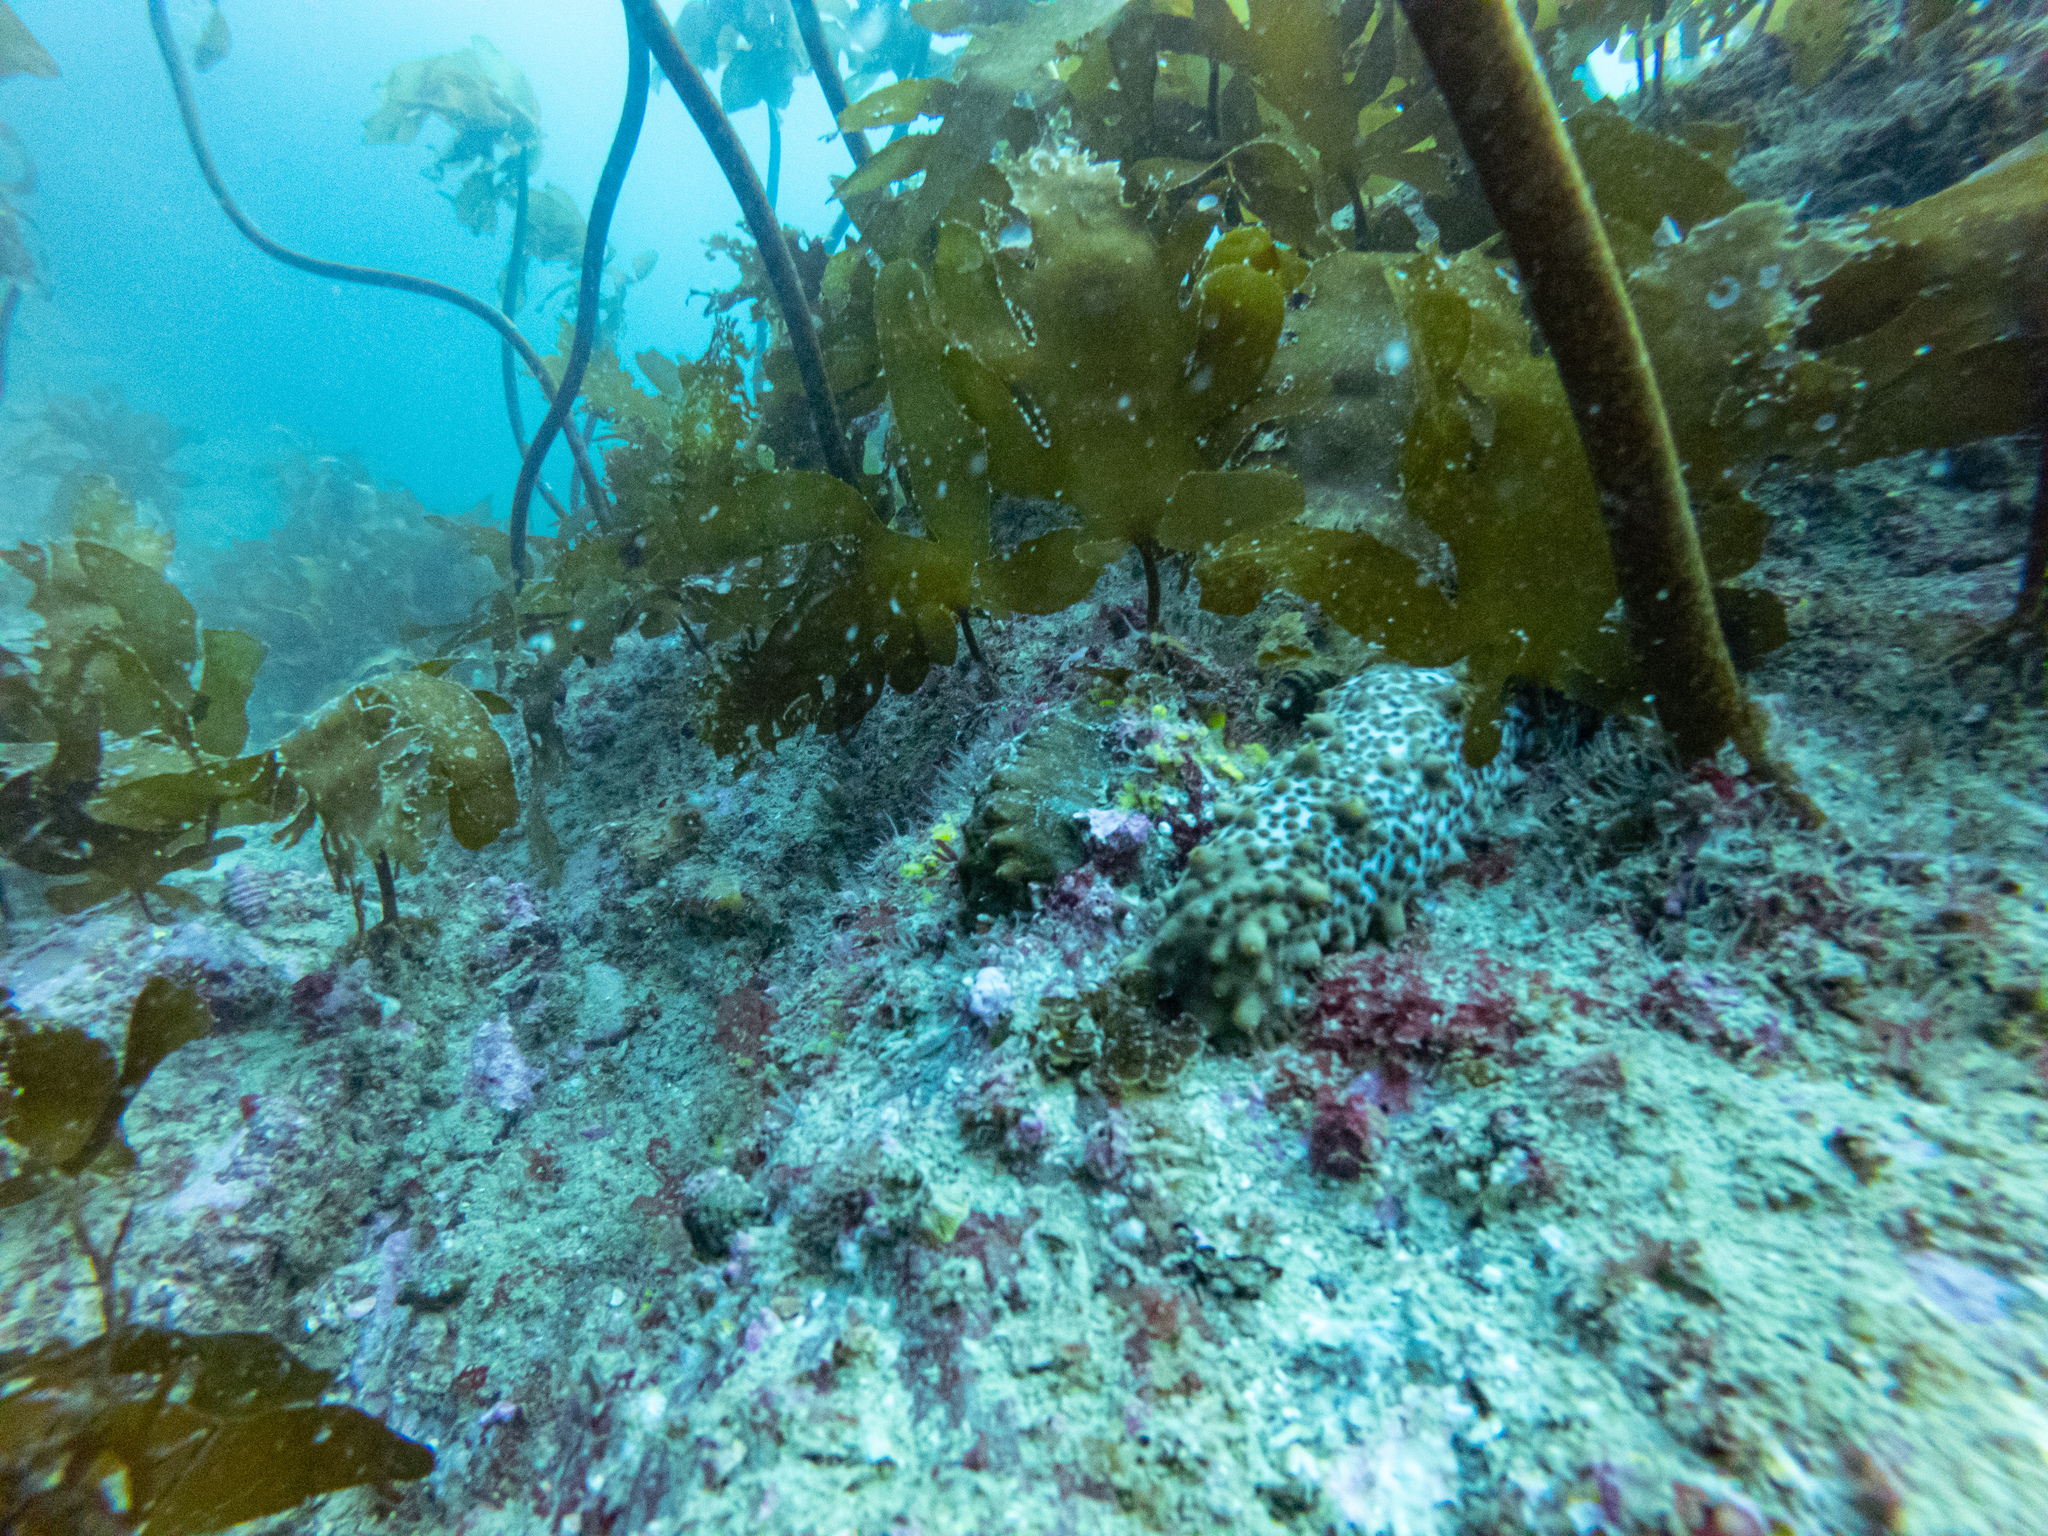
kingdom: Animalia
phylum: Echinodermata
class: Holothuroidea
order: Synallactida
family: Stichopodidae
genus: Australostichopus
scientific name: Australostichopus mollis
